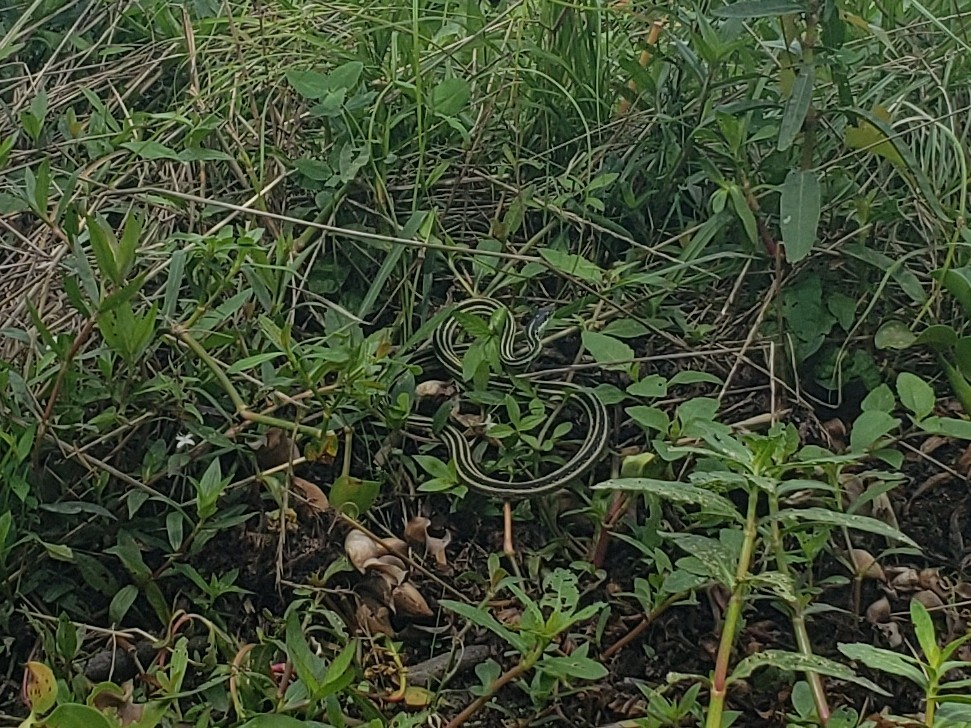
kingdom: Animalia
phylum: Chordata
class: Squamata
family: Colubridae
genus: Thamnophis
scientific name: Thamnophis proximus
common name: Western ribbon snake
